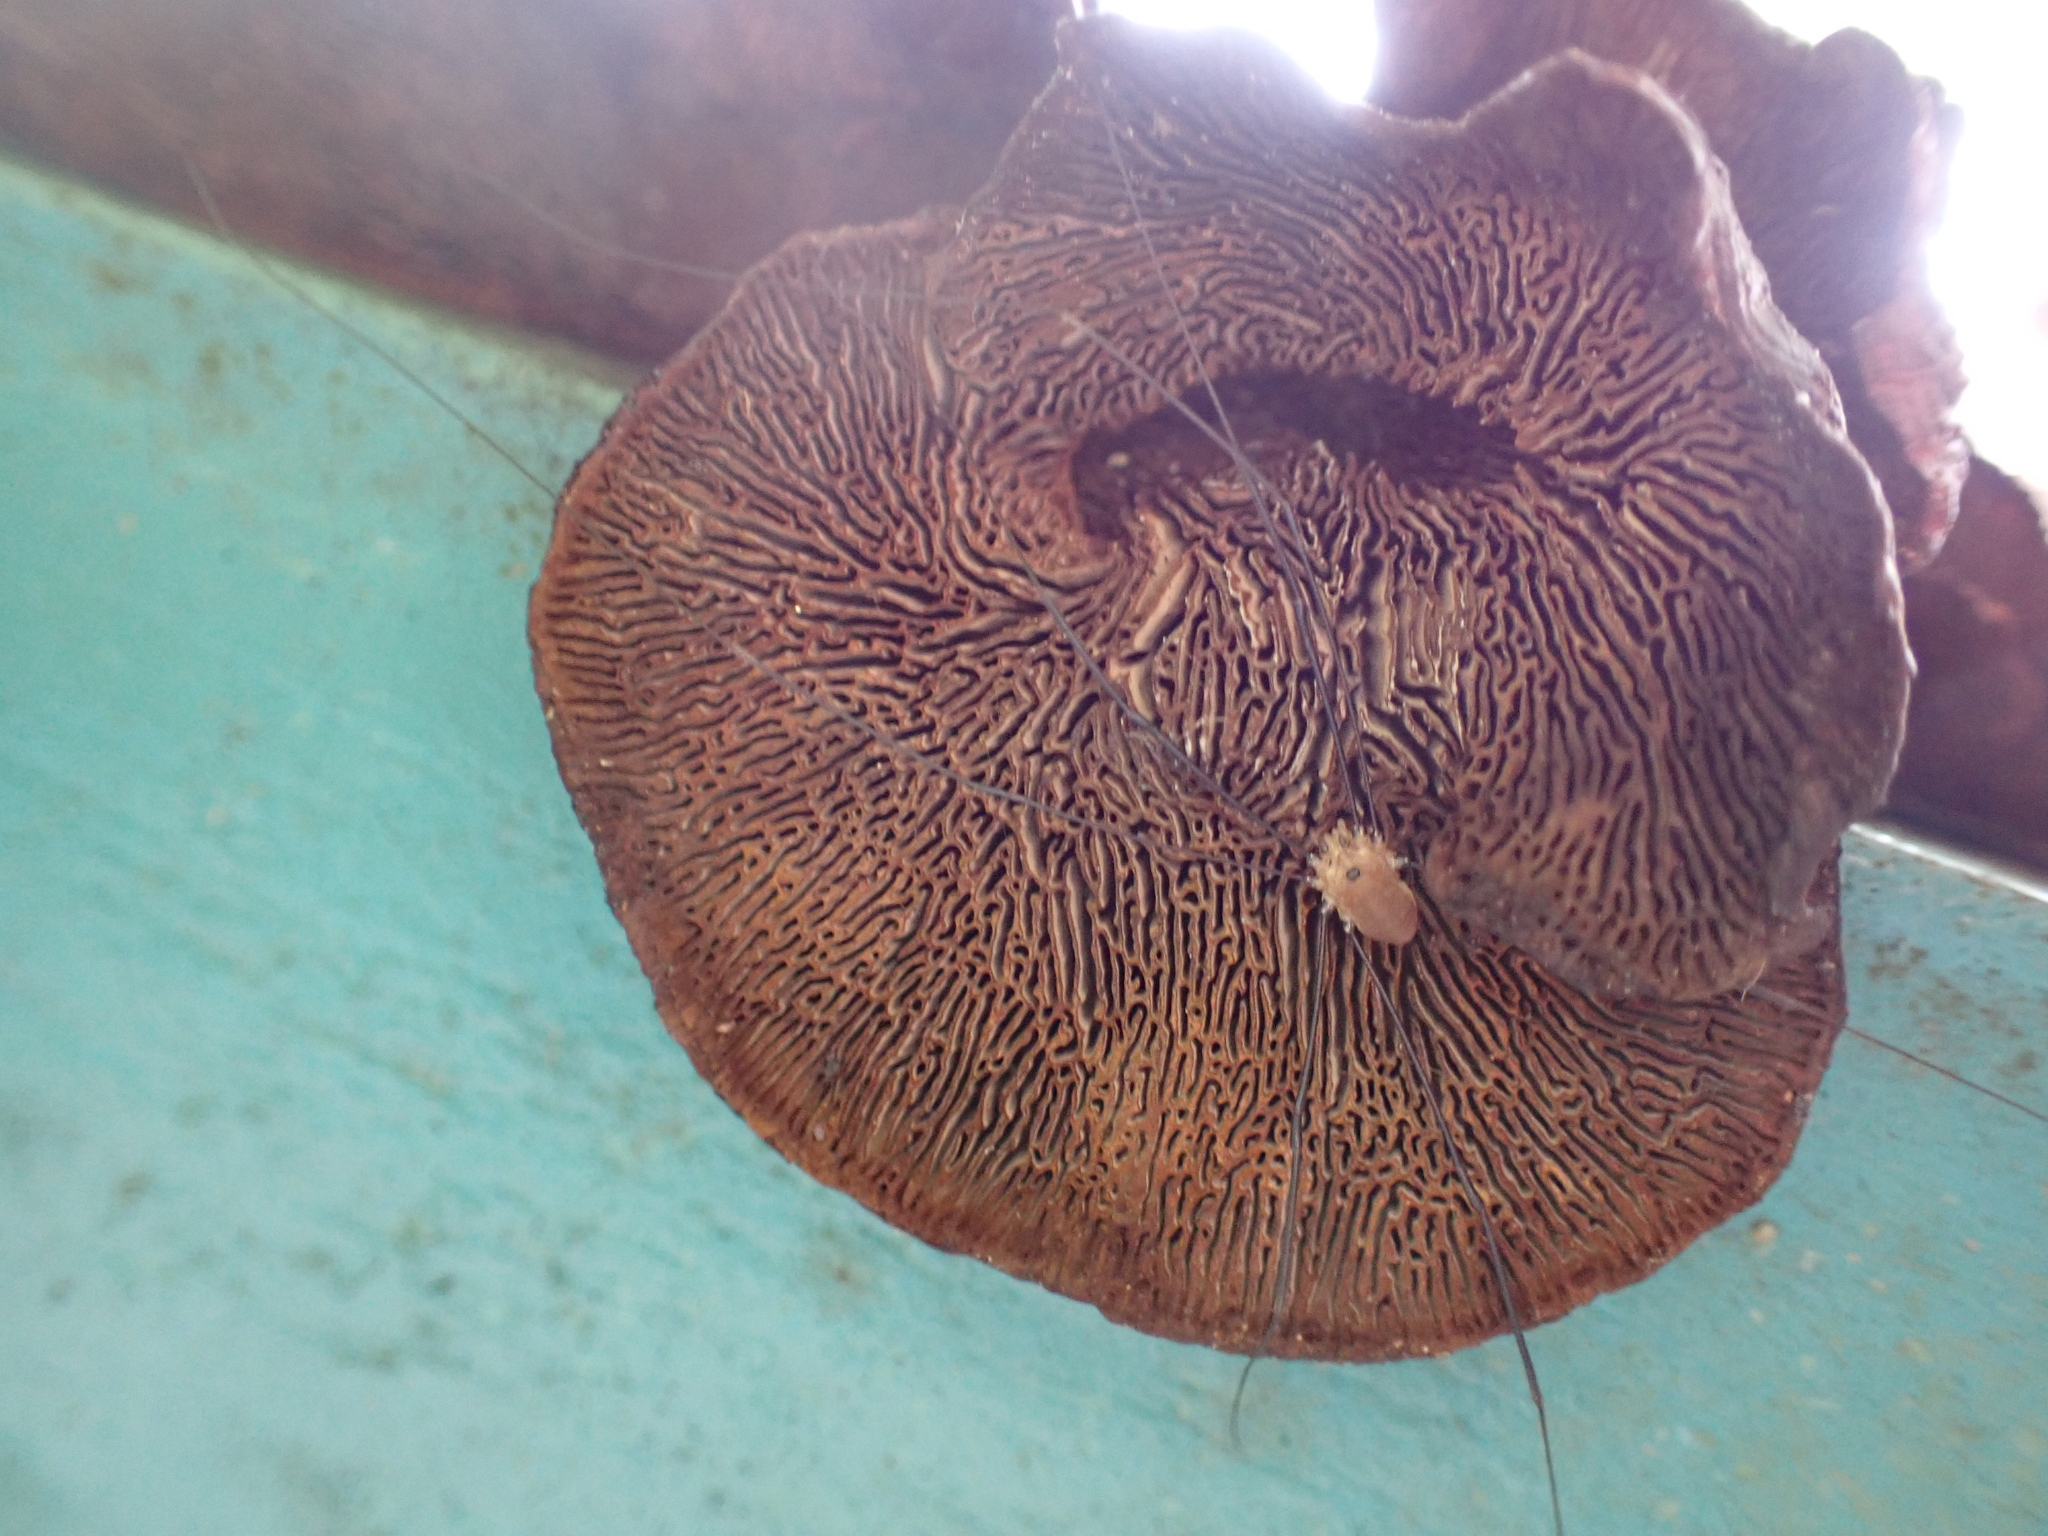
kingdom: Animalia
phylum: Arthropoda
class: Arachnida
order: Opiliones
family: Sclerosomatidae
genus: Leiobunum
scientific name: Leiobunum rotundum
